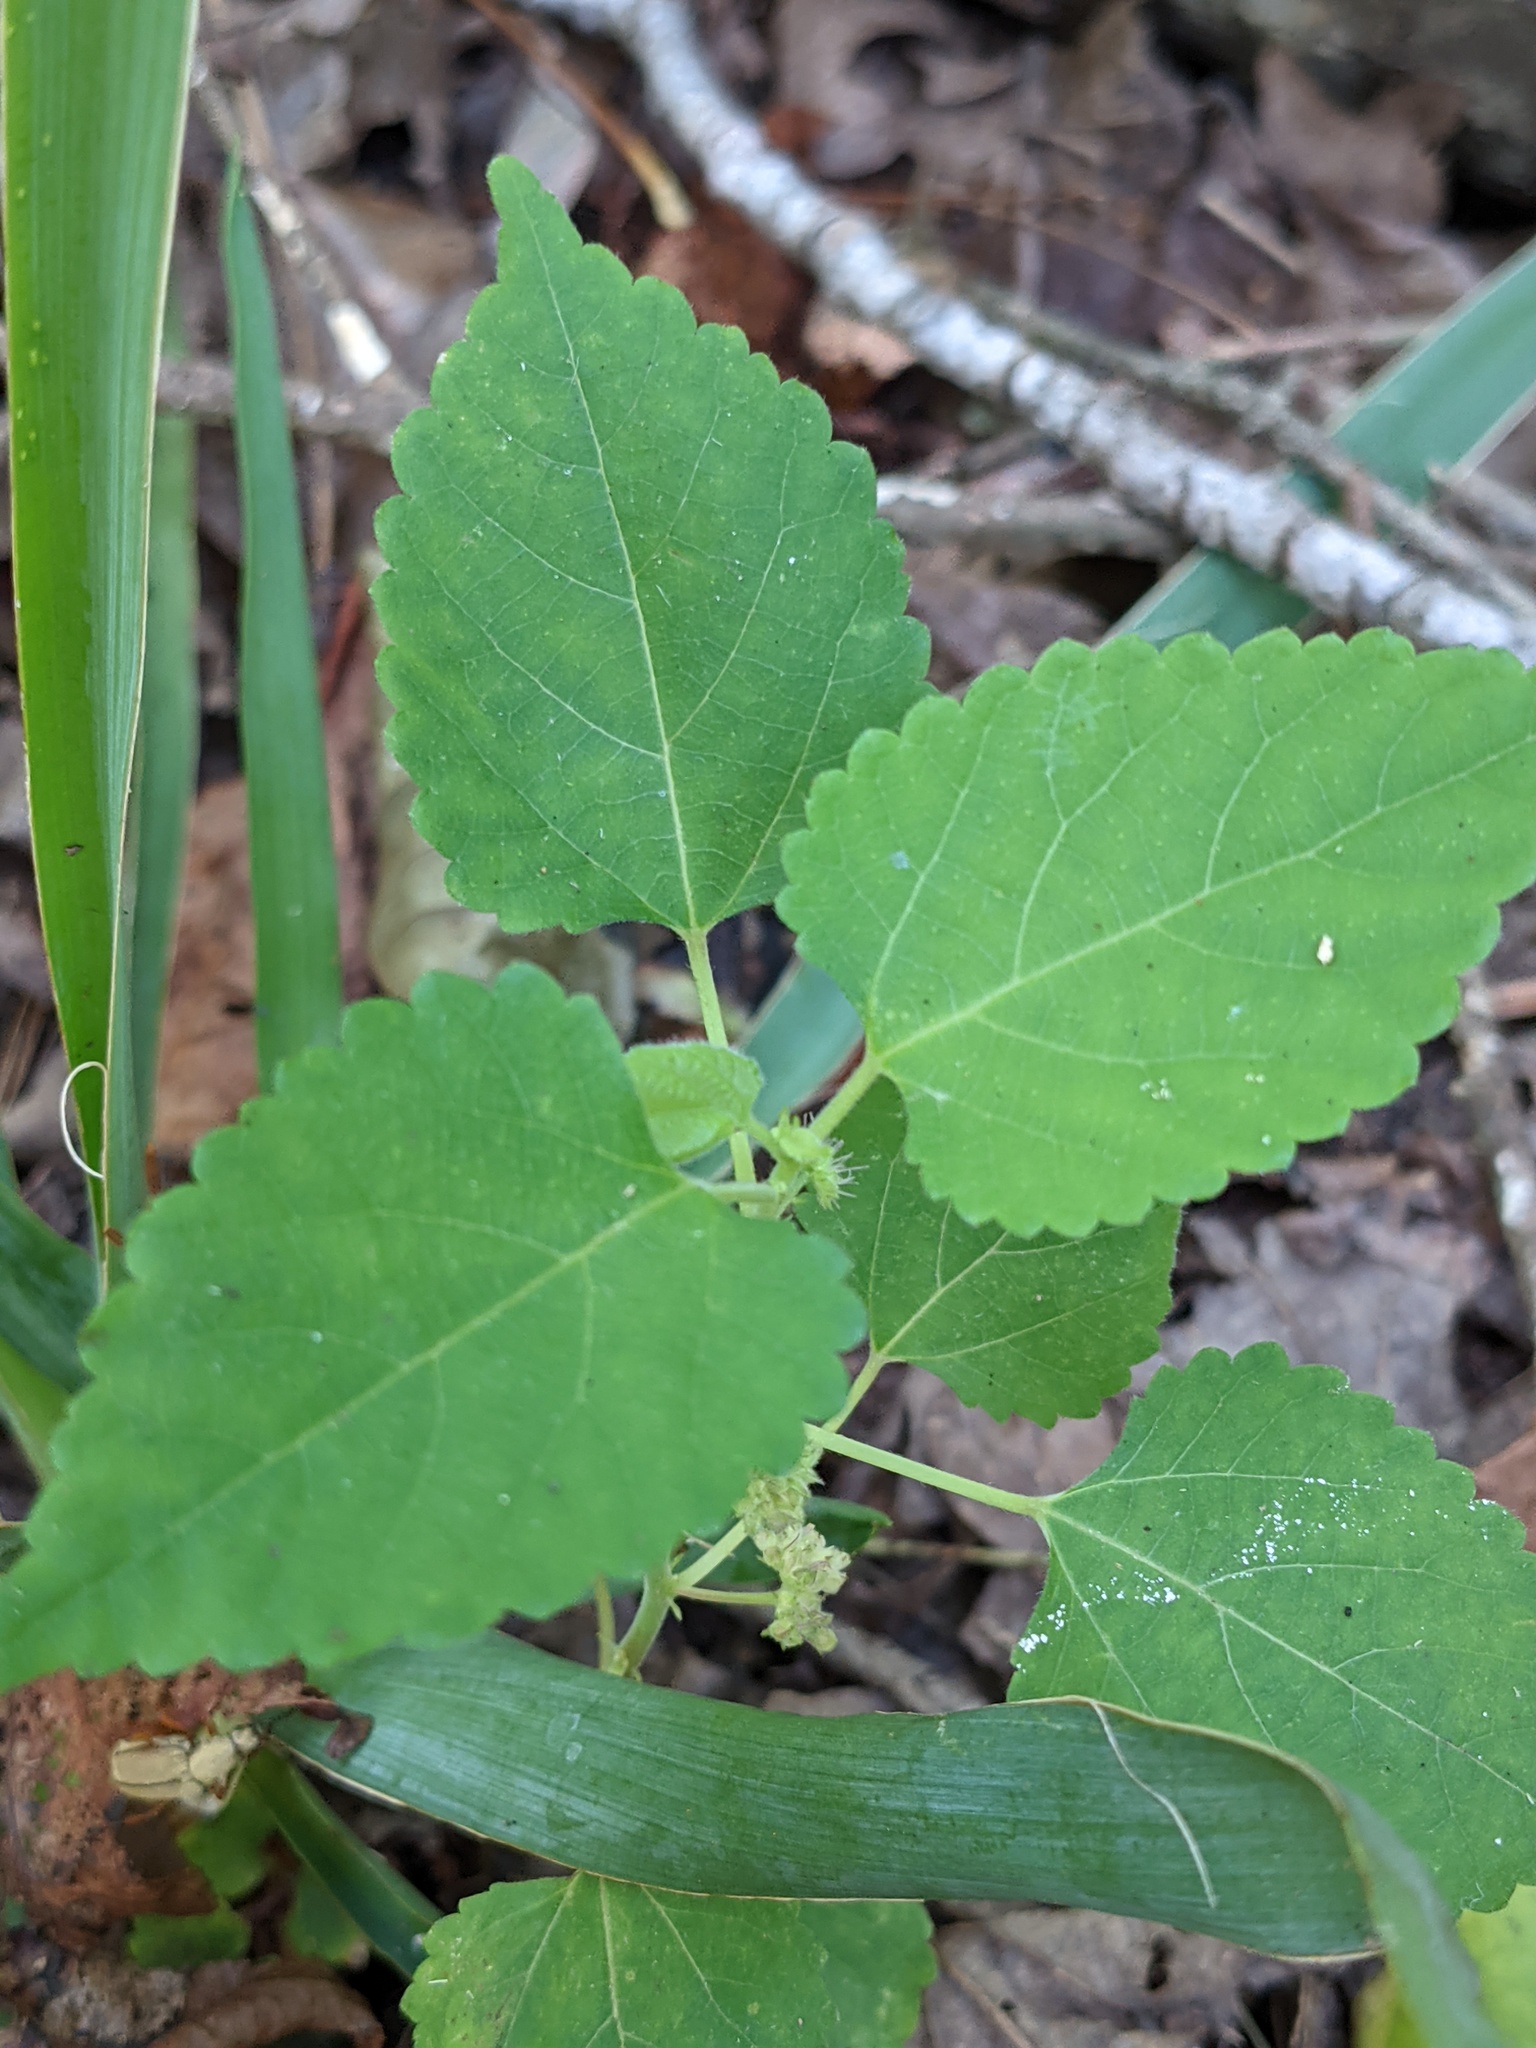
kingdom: Plantae
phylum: Tracheophyta
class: Magnoliopsida
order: Rosales
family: Moraceae
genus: Fatoua
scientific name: Fatoua villosa
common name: Hairy crabweed
